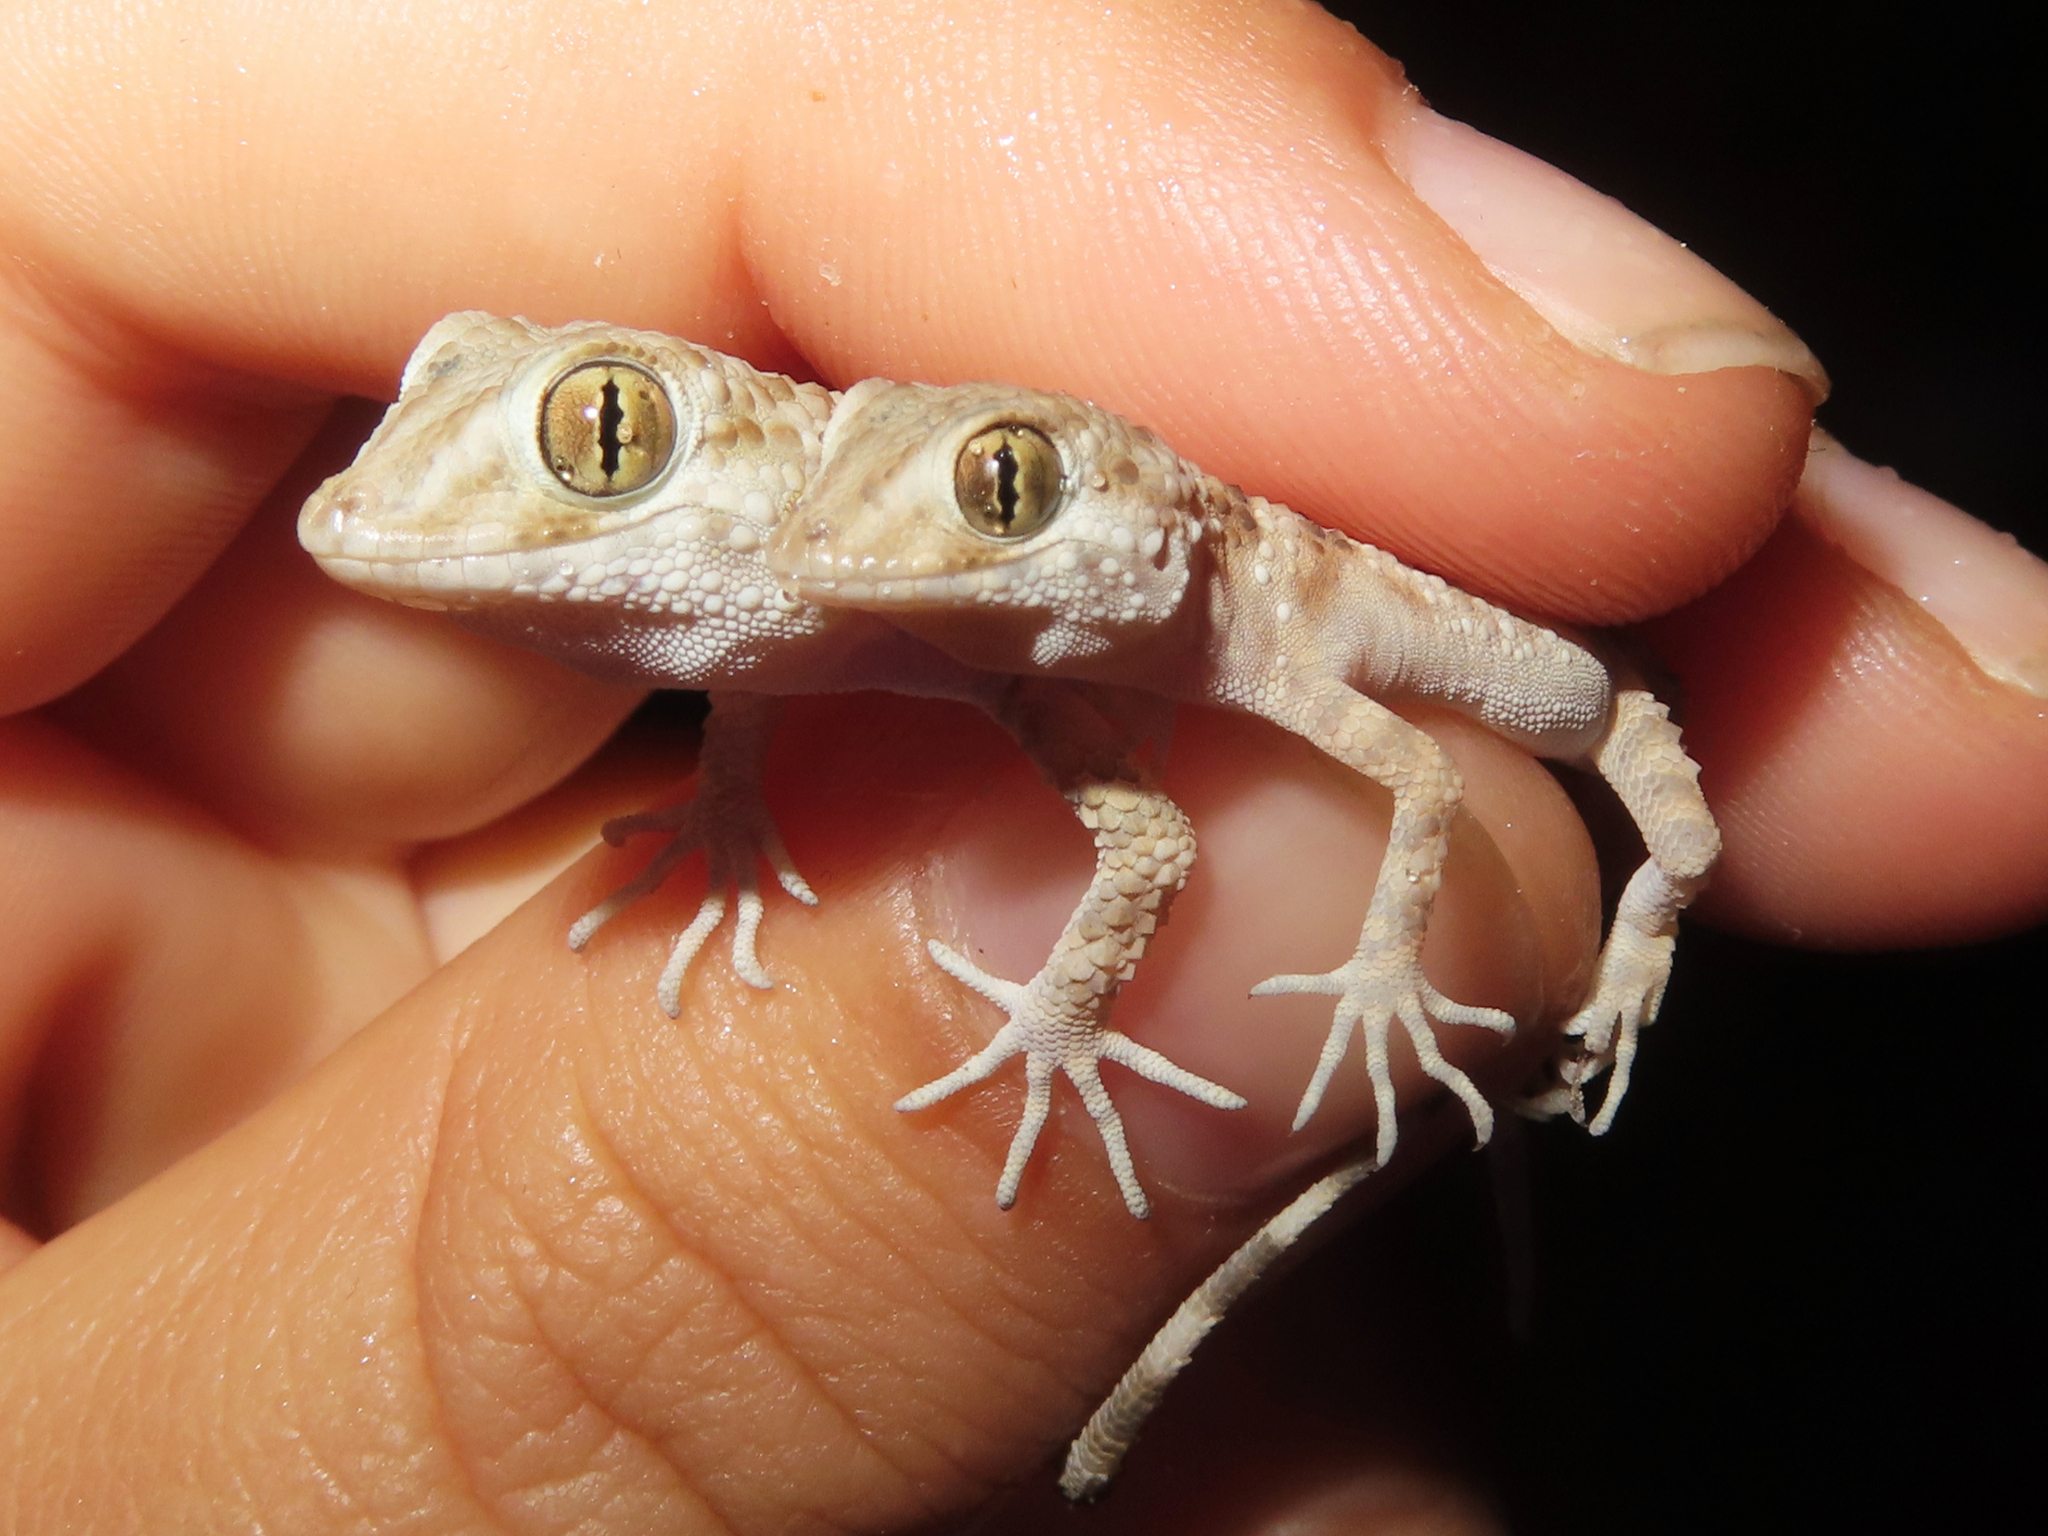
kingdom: Animalia
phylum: Chordata
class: Squamata
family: Gekkonidae
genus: Tenuidactylus
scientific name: Tenuidactylus caspius
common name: Caspian bent-toed gecko
